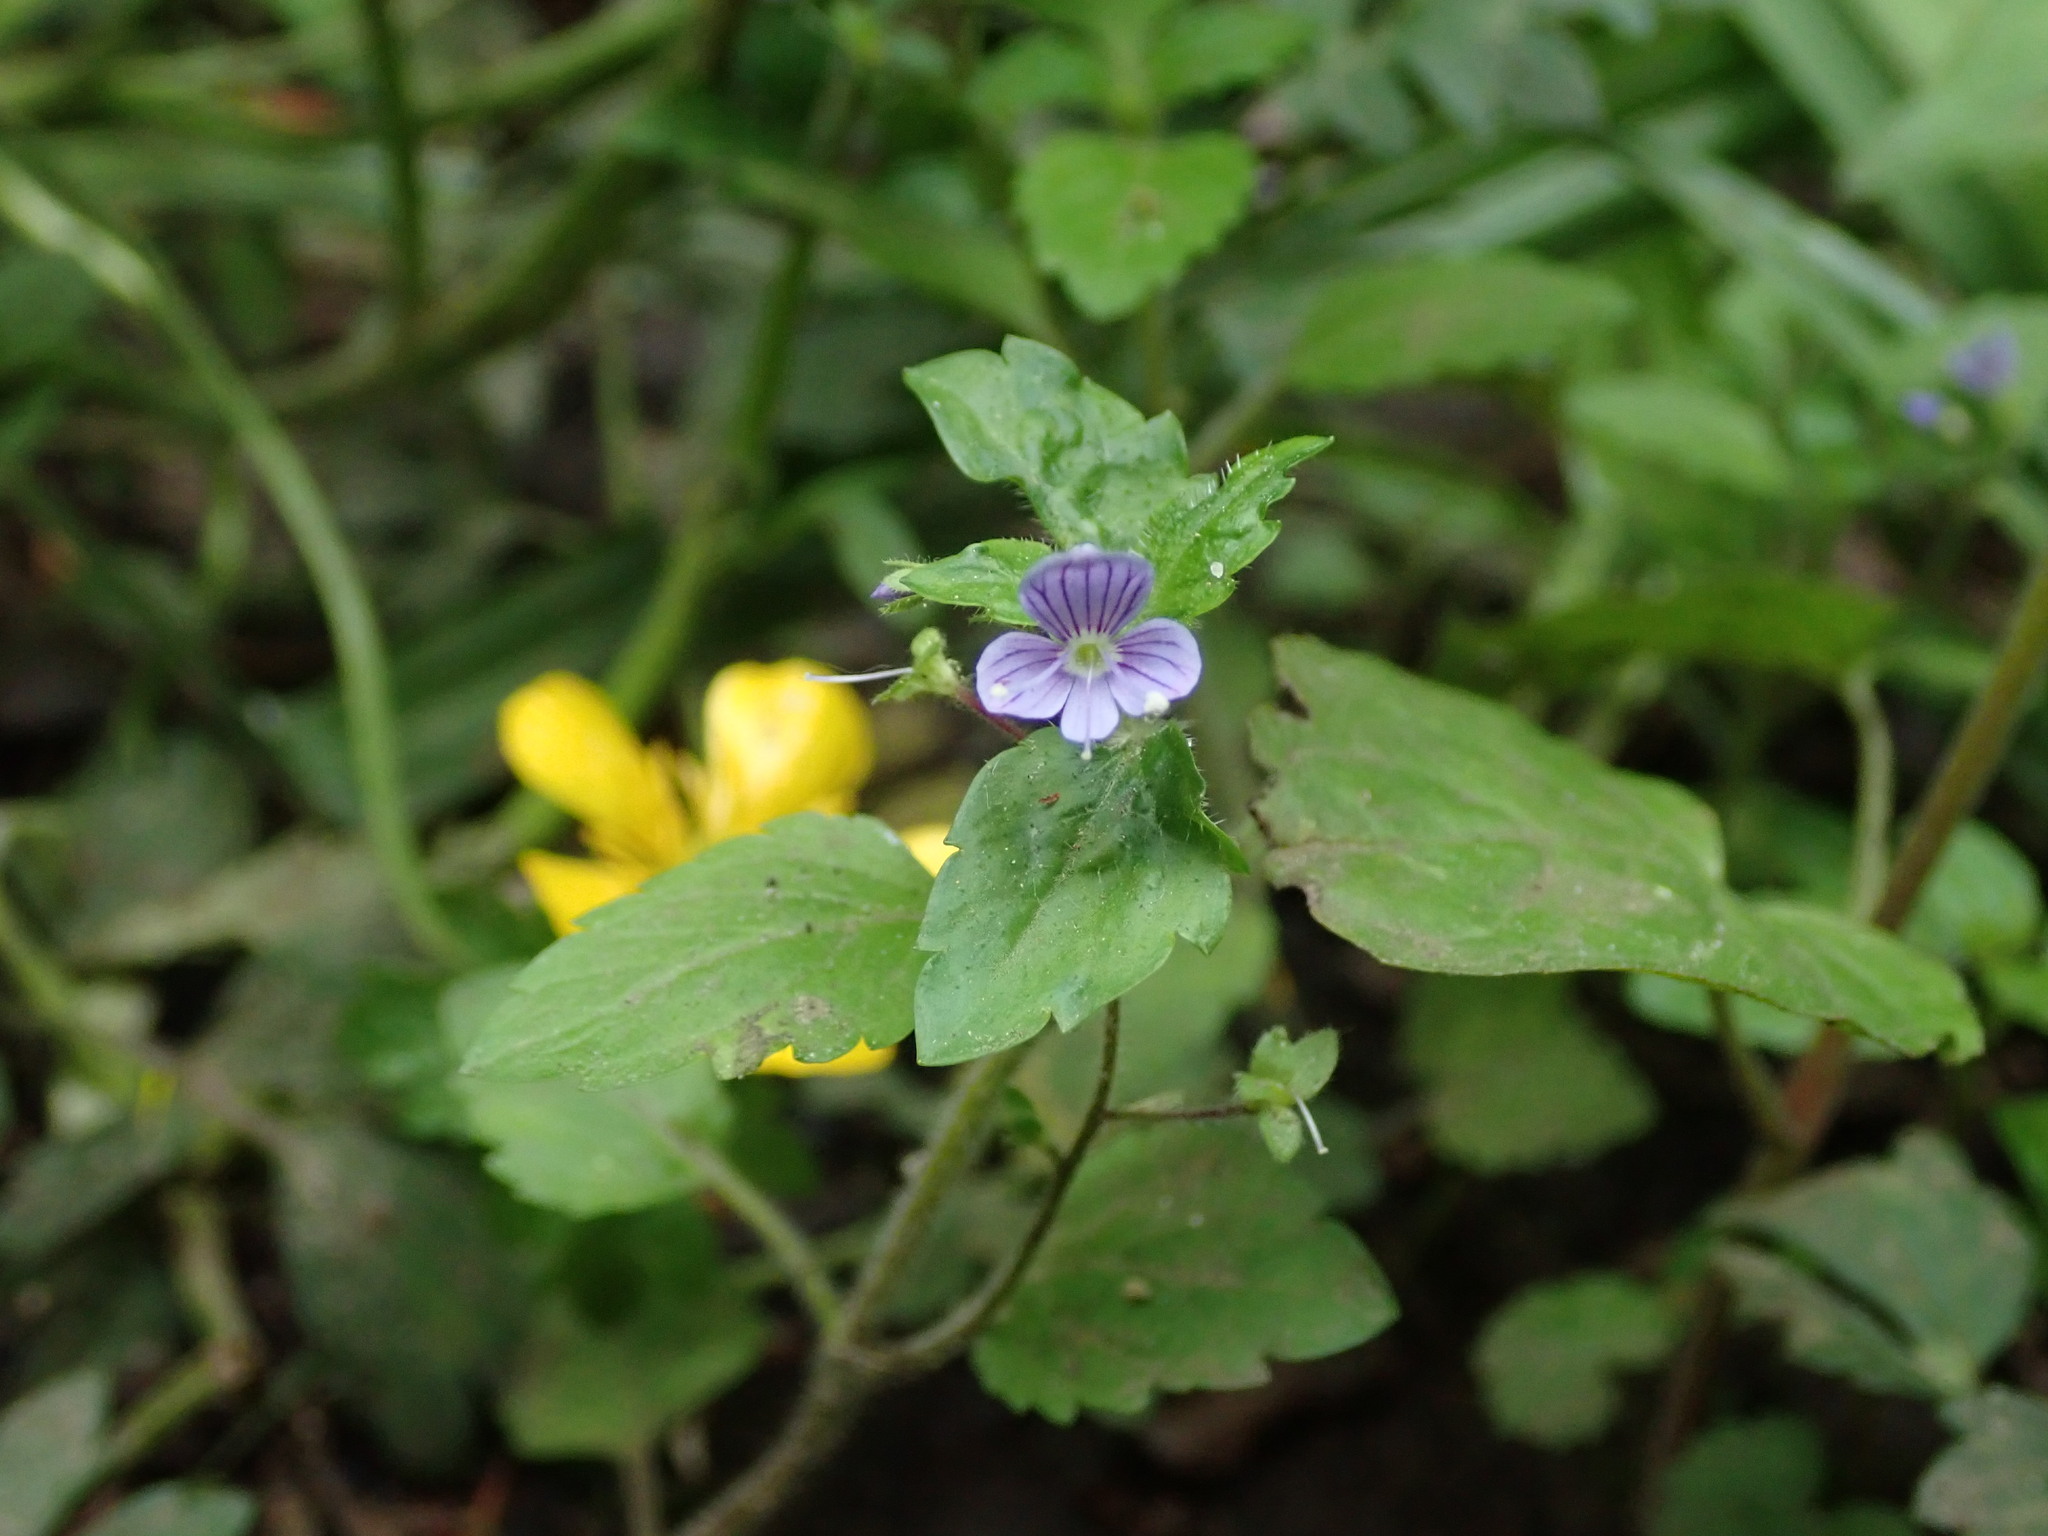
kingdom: Plantae
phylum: Tracheophyta
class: Magnoliopsida
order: Lamiales
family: Plantaginaceae
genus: Veronica
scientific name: Veronica montana
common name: Wood speedwell
